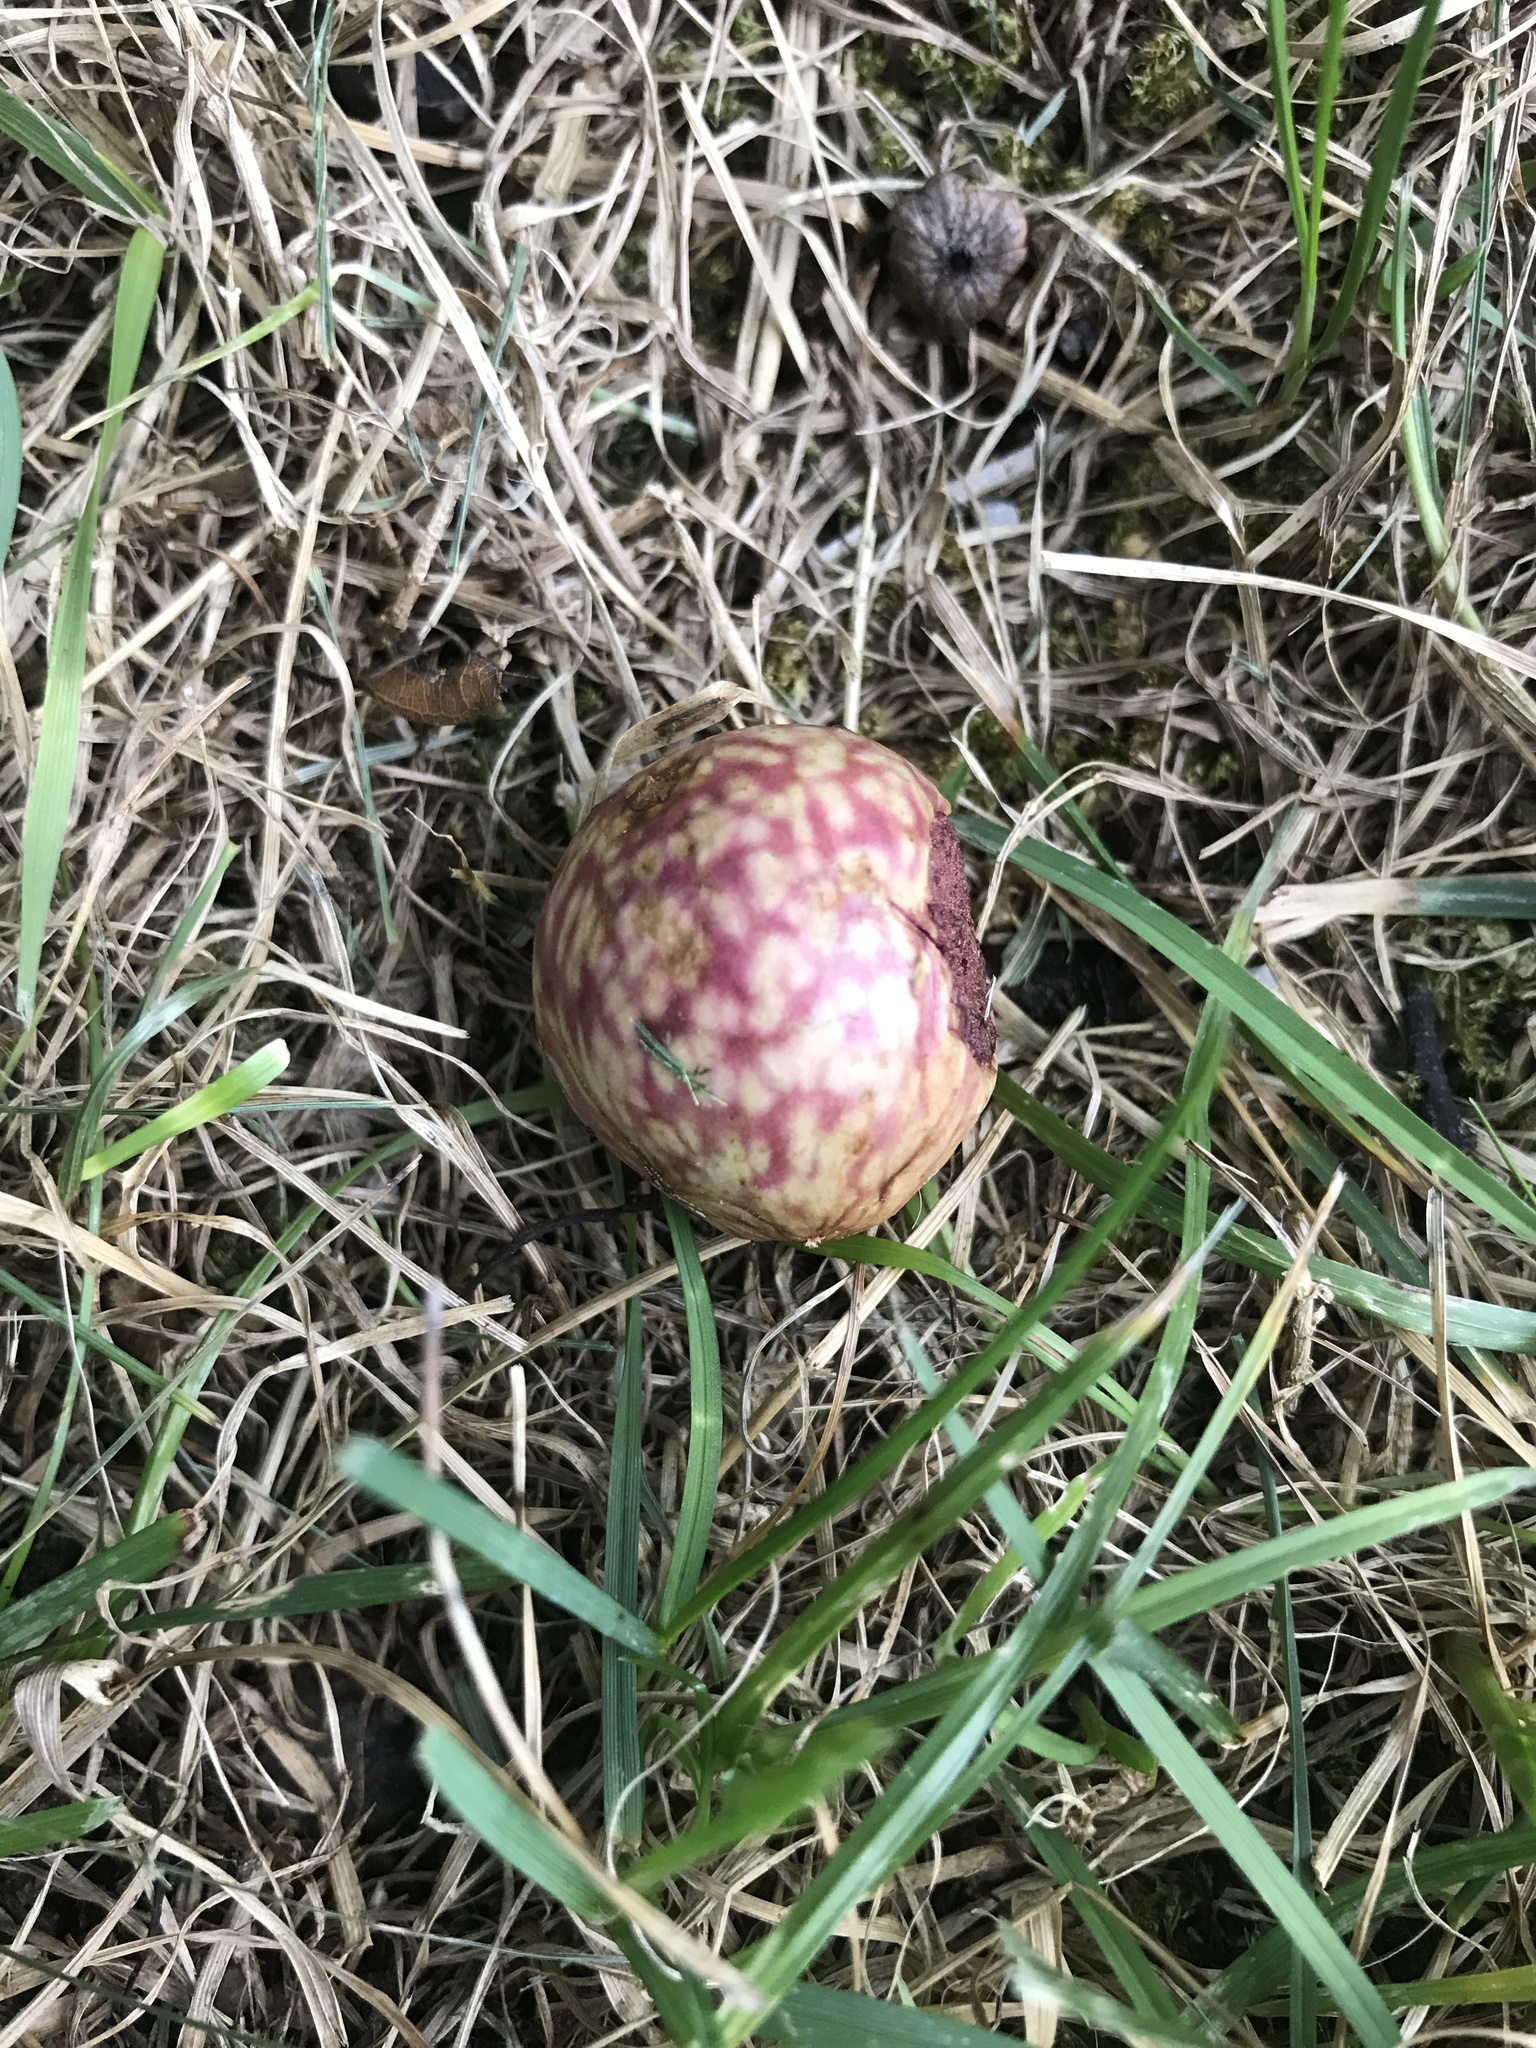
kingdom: Animalia
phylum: Arthropoda
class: Insecta
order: Hymenoptera
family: Cynipidae
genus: Amphibolips
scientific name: Amphibolips
